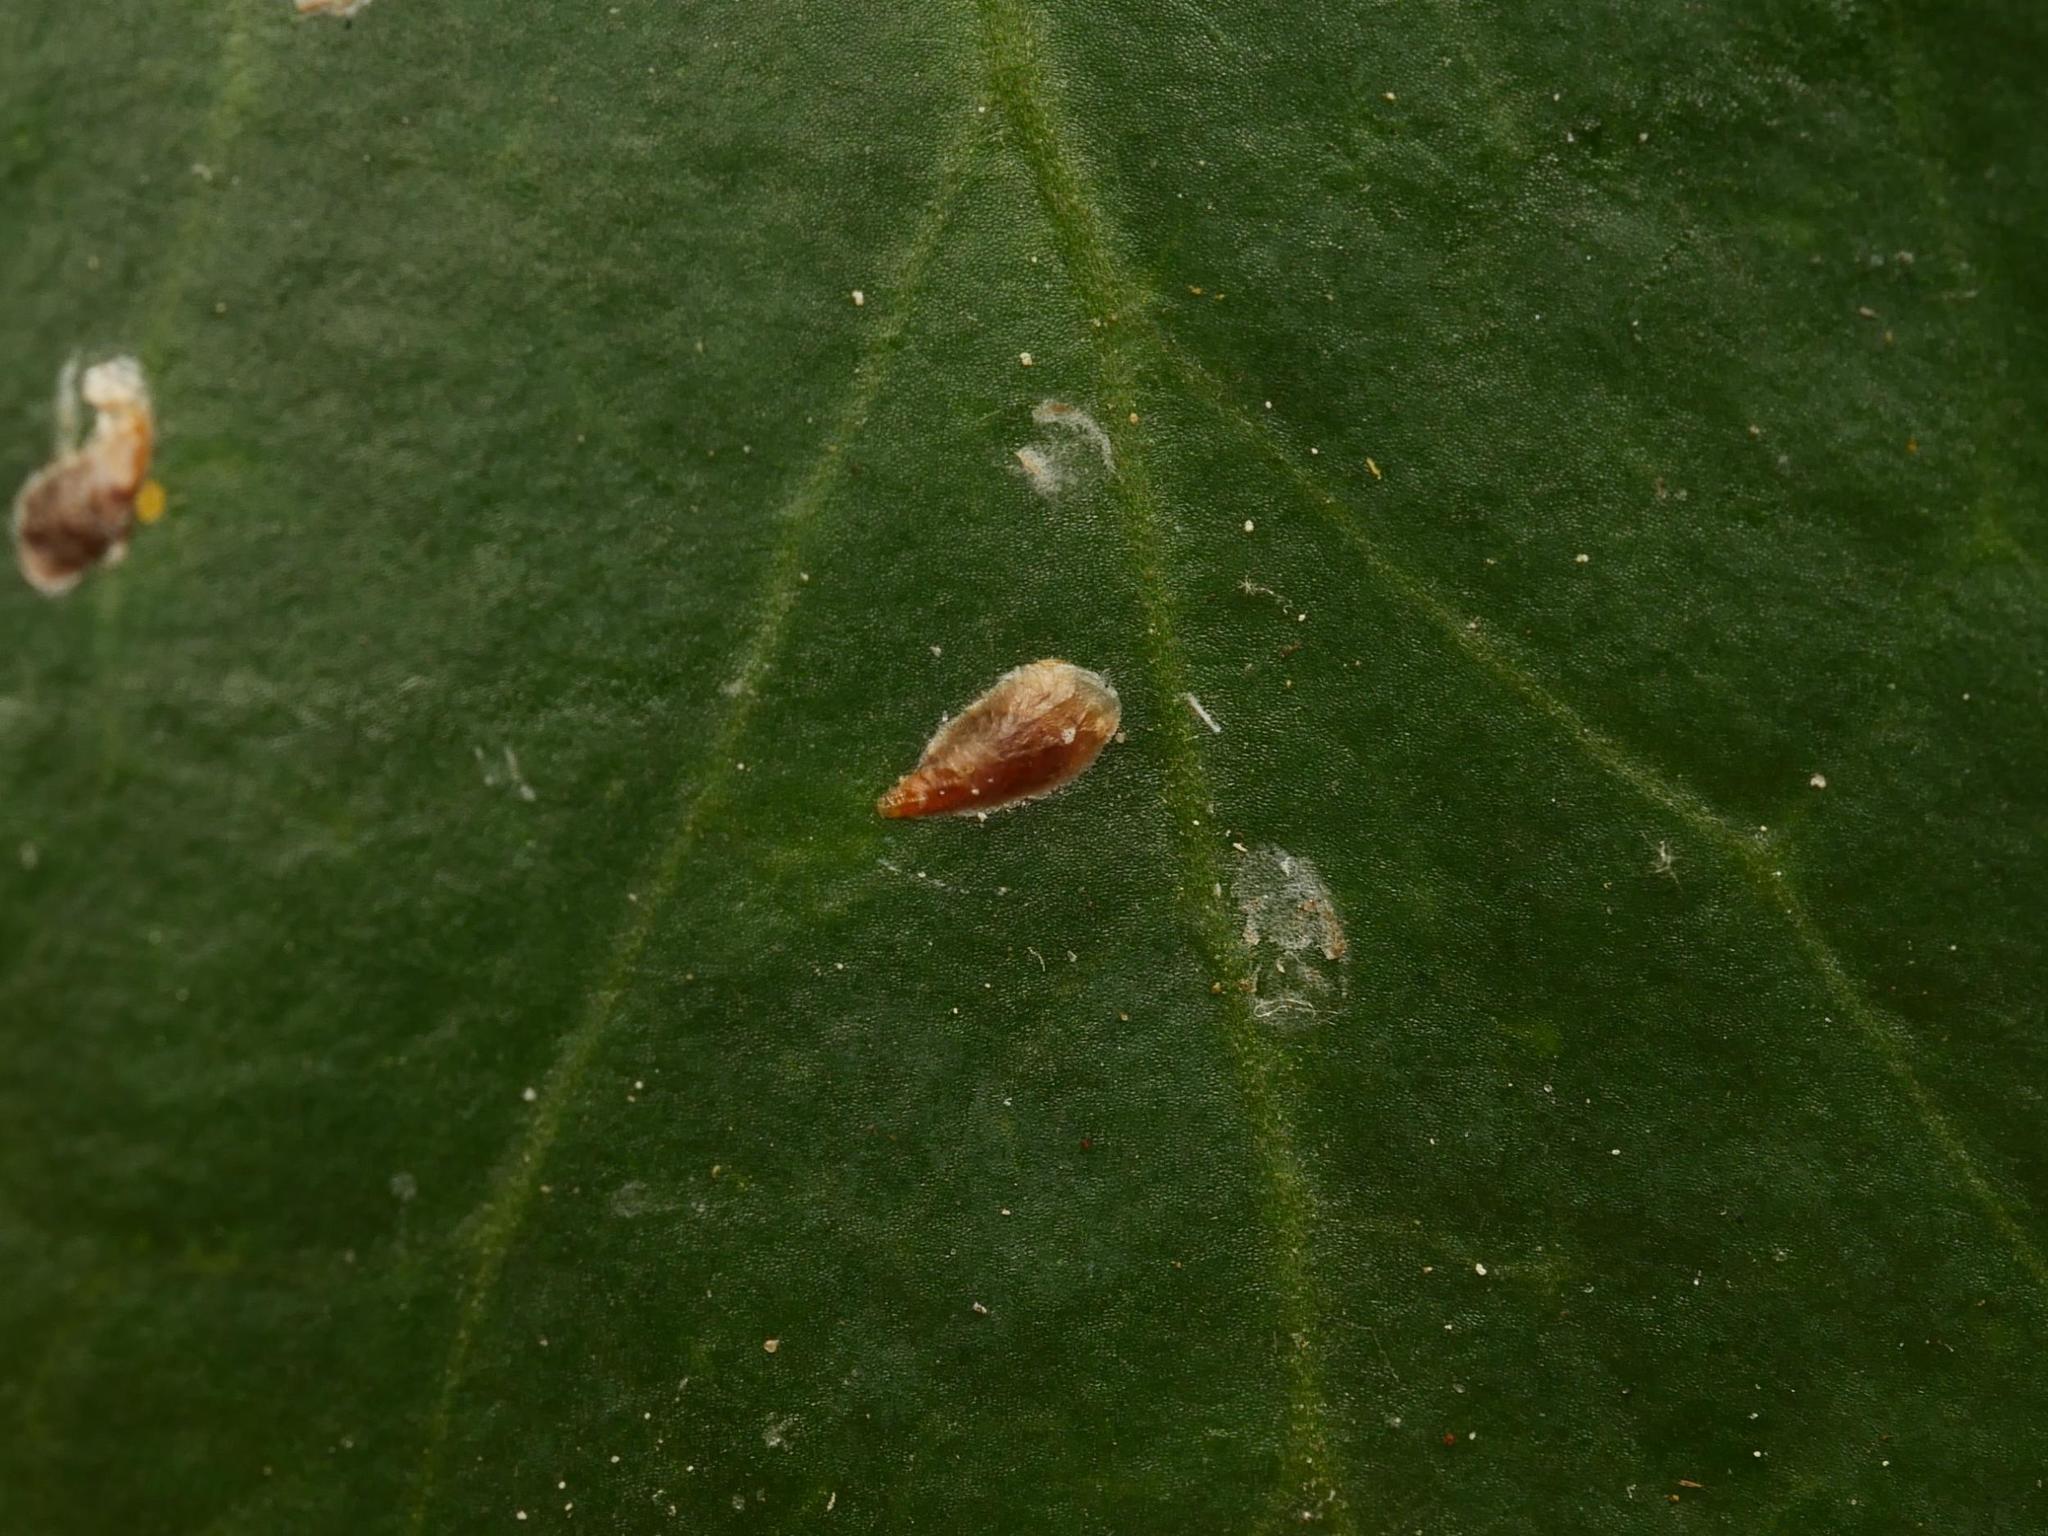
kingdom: Animalia
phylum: Arthropoda
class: Insecta
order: Hemiptera
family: Diaspididae
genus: Unaspis
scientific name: Unaspis euonymi
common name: Euonymus scale
